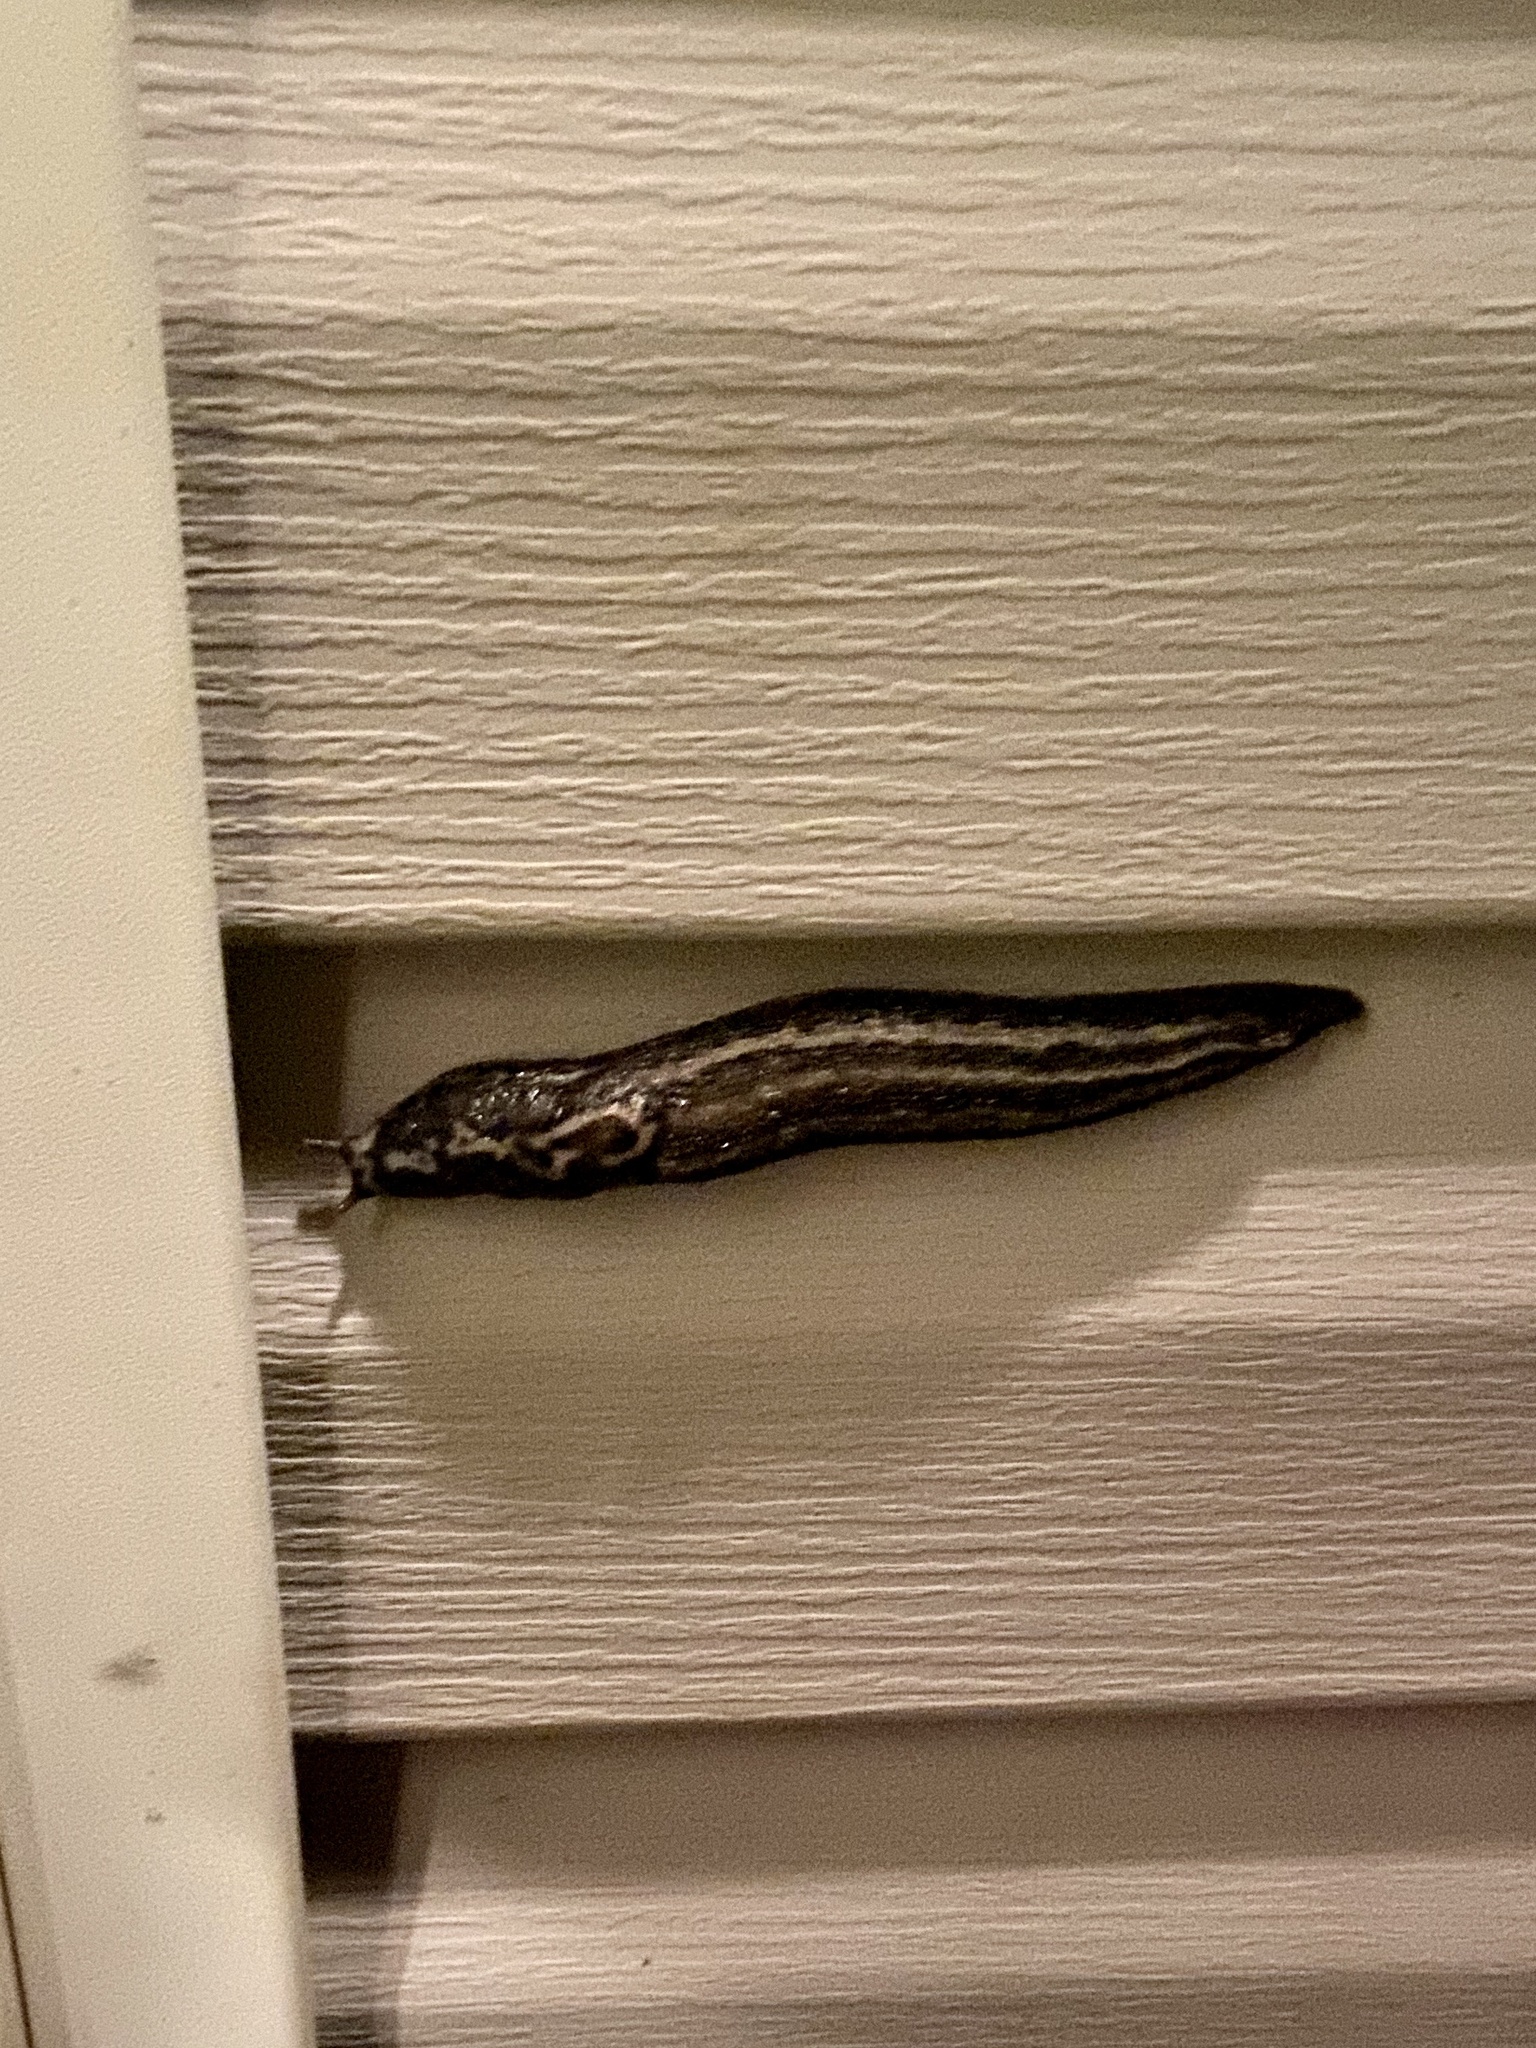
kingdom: Animalia
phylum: Mollusca
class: Gastropoda
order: Stylommatophora
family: Limacidae
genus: Limax
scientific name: Limax maximus
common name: Great grey slug
